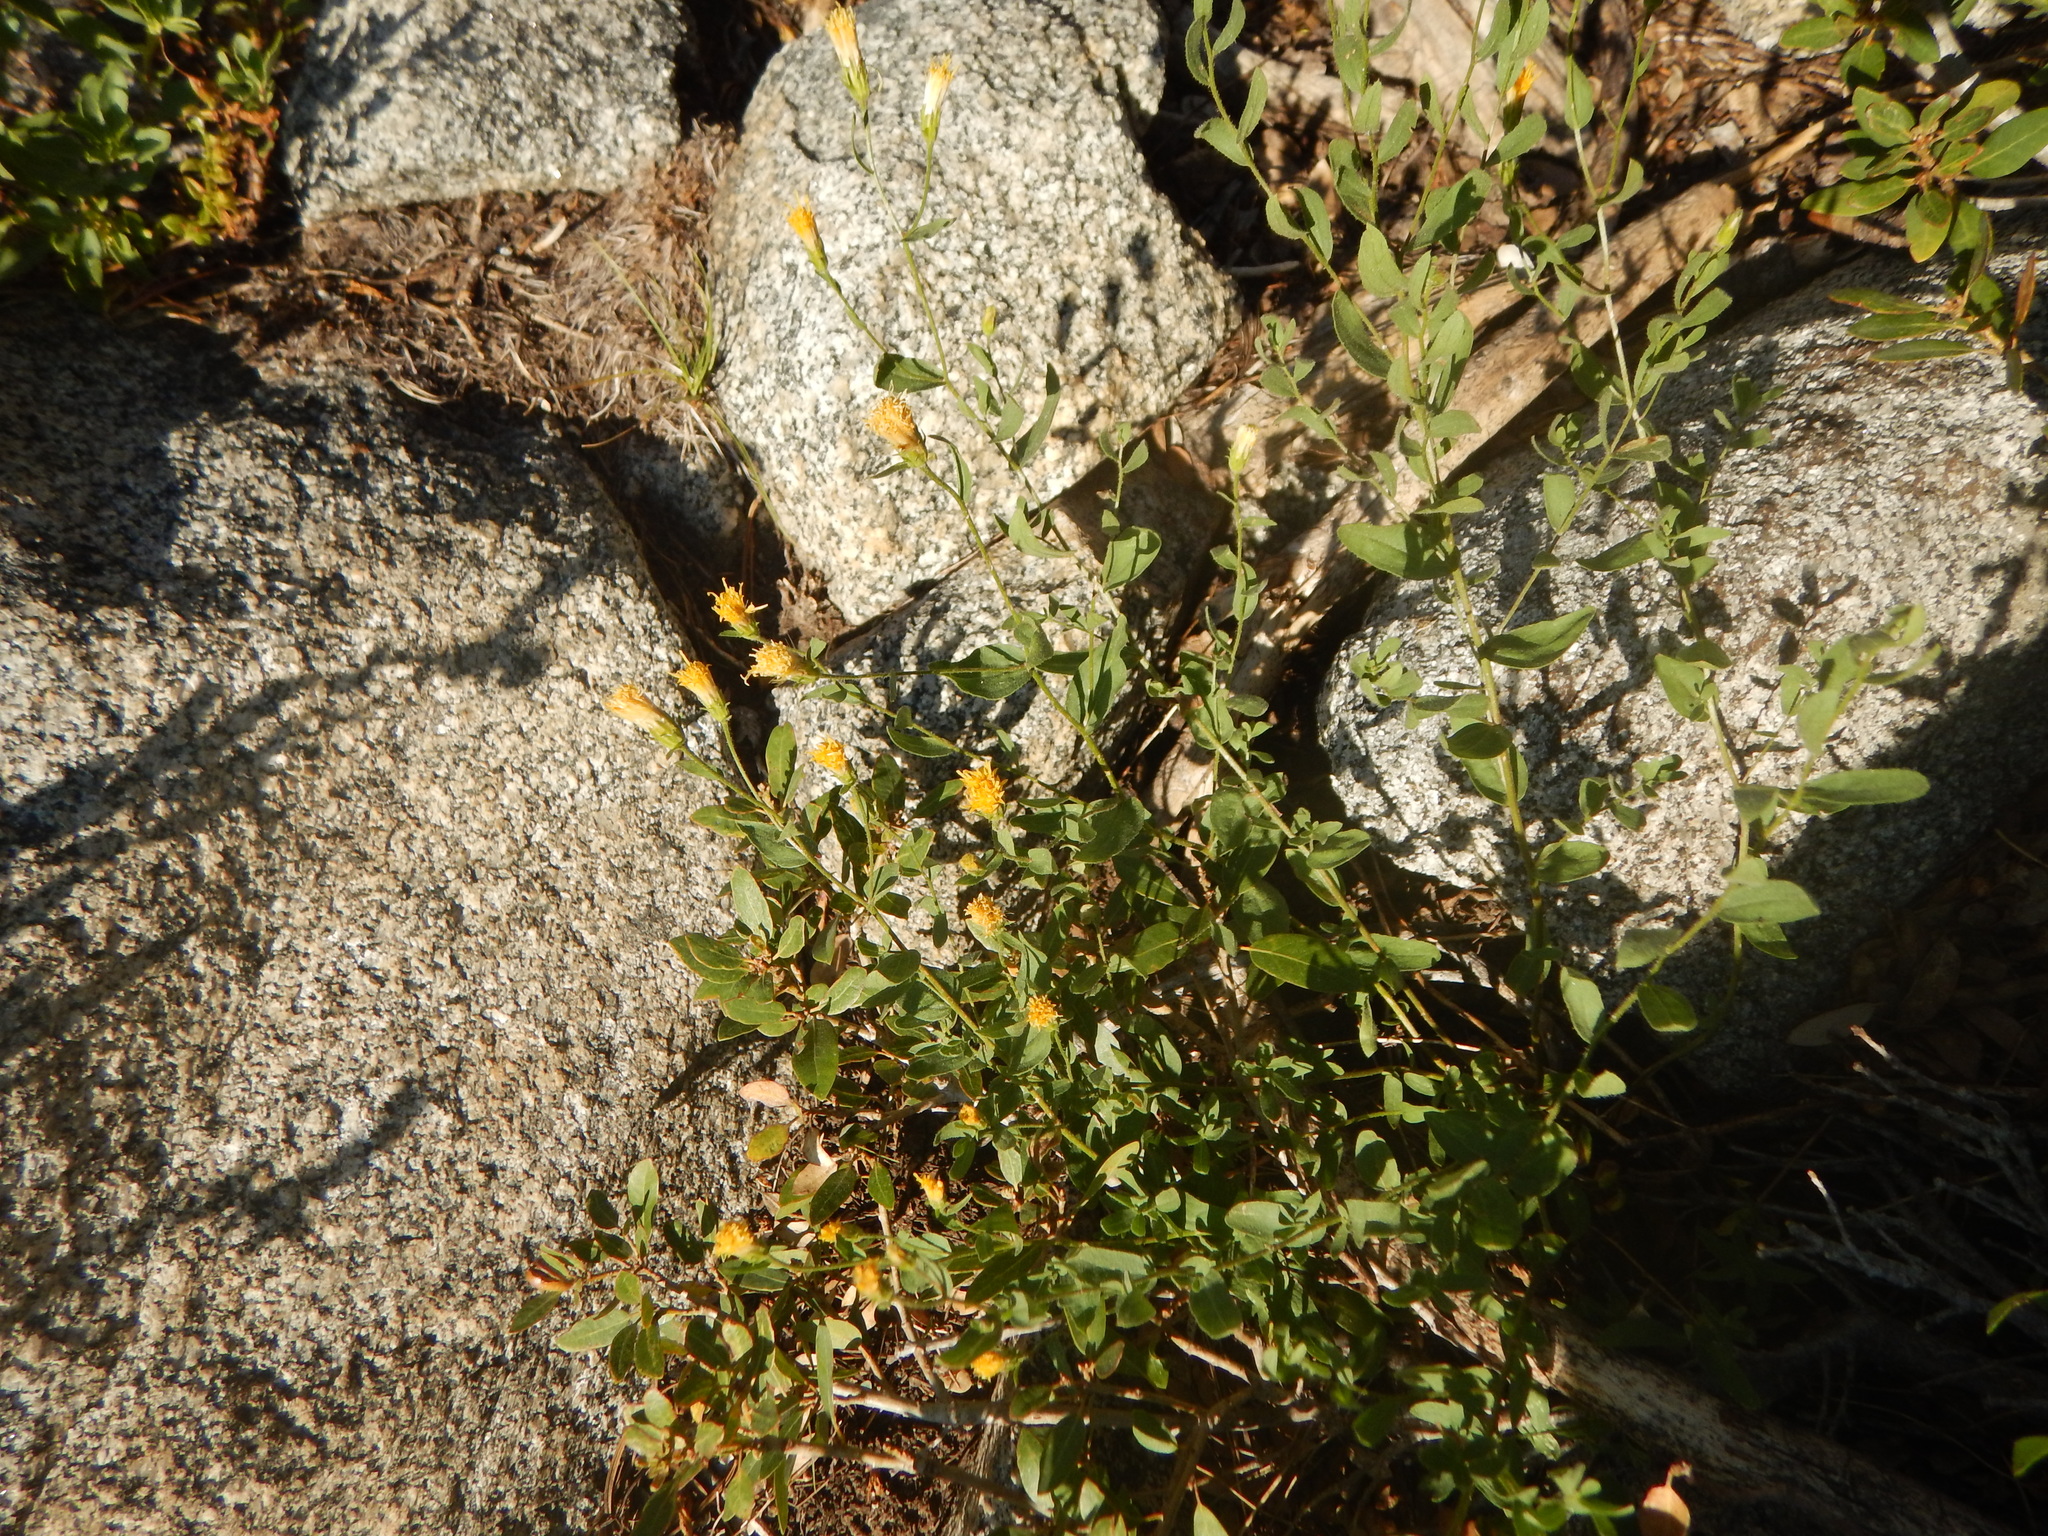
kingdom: Plantae
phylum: Tracheophyta
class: Magnoliopsida
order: Asterales
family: Asteraceae
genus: Eucephalus
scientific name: Eucephalus breweri
